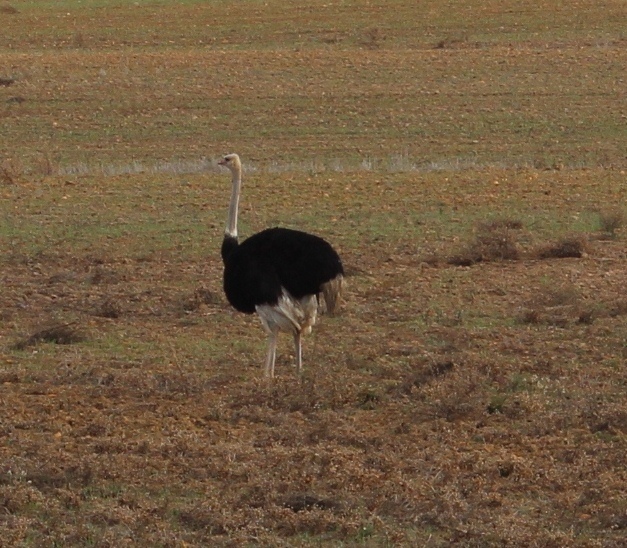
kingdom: Animalia
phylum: Chordata
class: Aves
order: Struthioniformes
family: Struthionidae
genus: Struthio
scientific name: Struthio camelus
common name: Common ostrich
